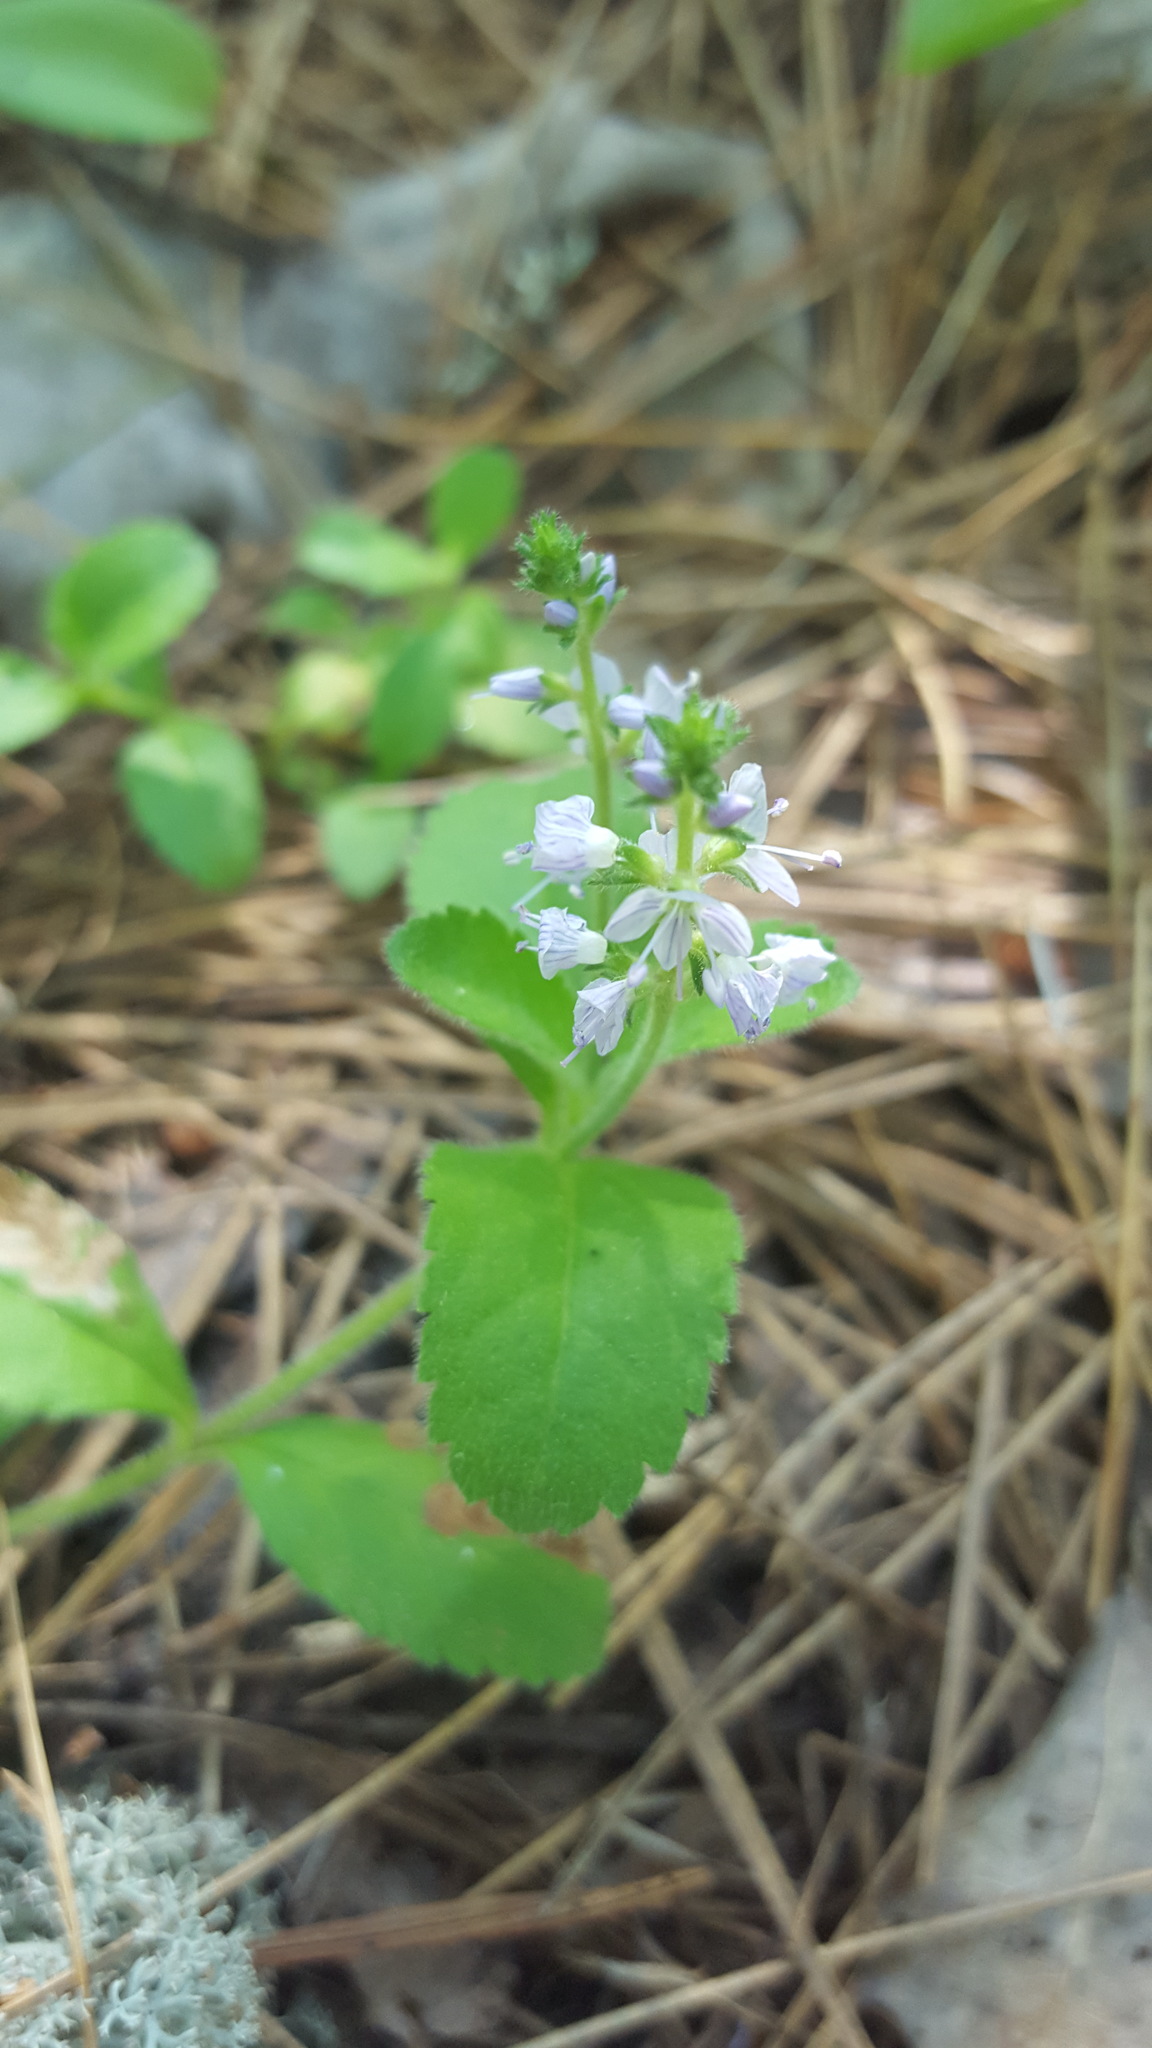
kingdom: Plantae
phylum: Tracheophyta
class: Magnoliopsida
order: Lamiales
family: Plantaginaceae
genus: Veronica
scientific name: Veronica officinalis
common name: Common speedwell
